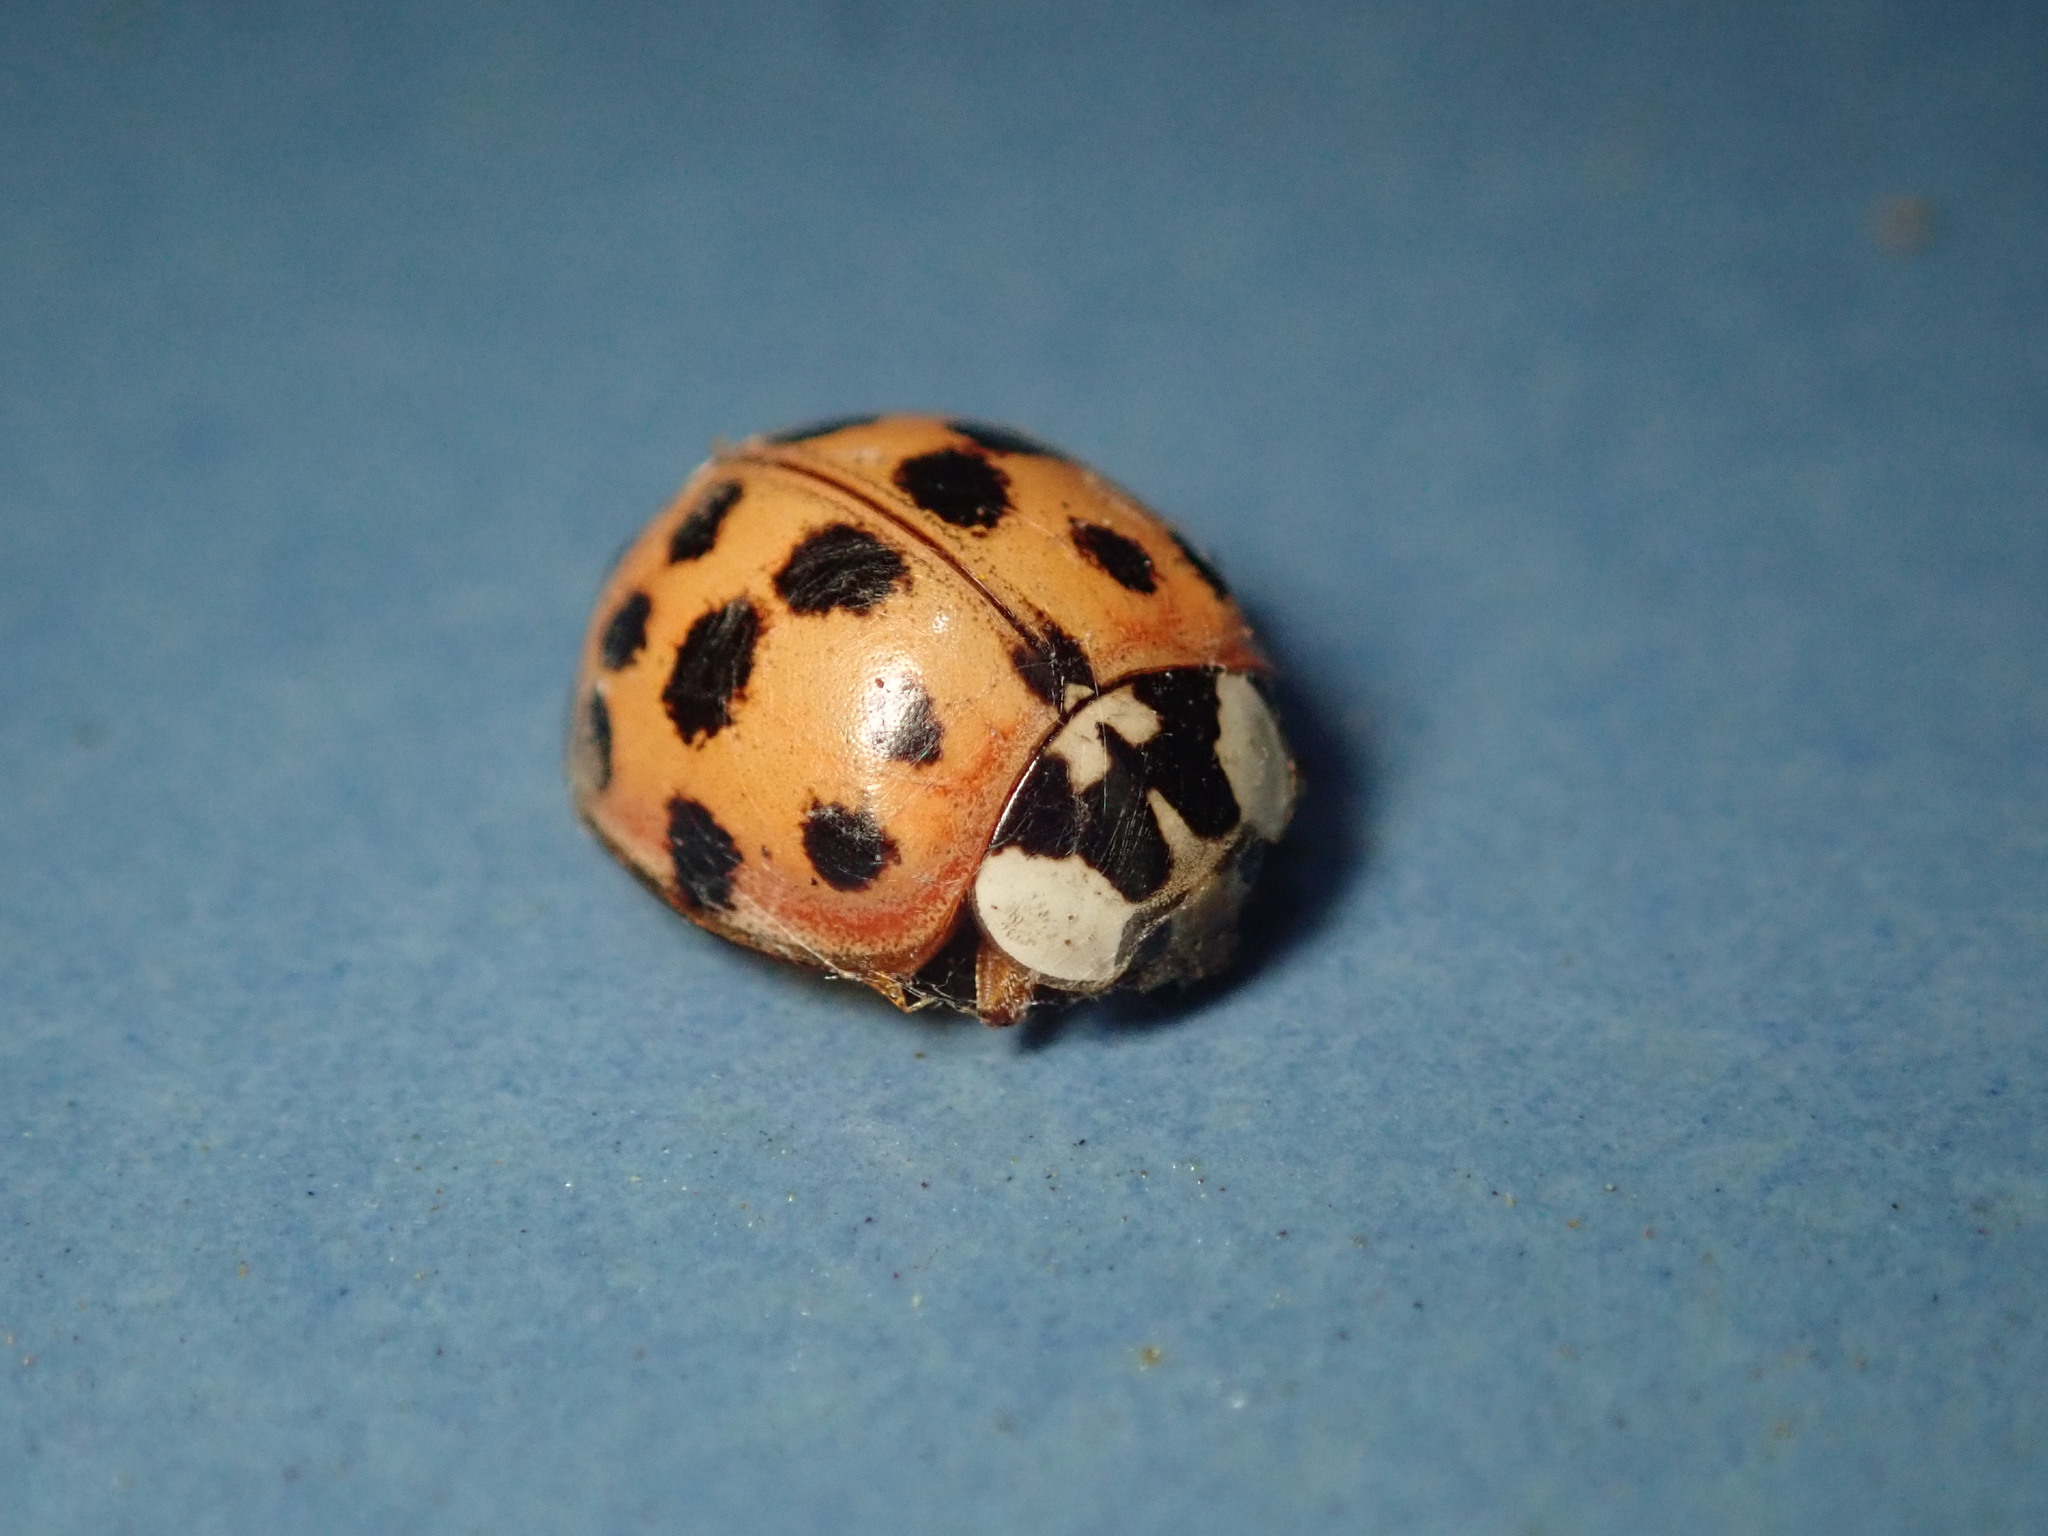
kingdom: Animalia
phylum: Arthropoda
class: Insecta
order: Coleoptera
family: Coccinellidae
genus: Harmonia
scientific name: Harmonia axyridis
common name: Harlequin ladybird
